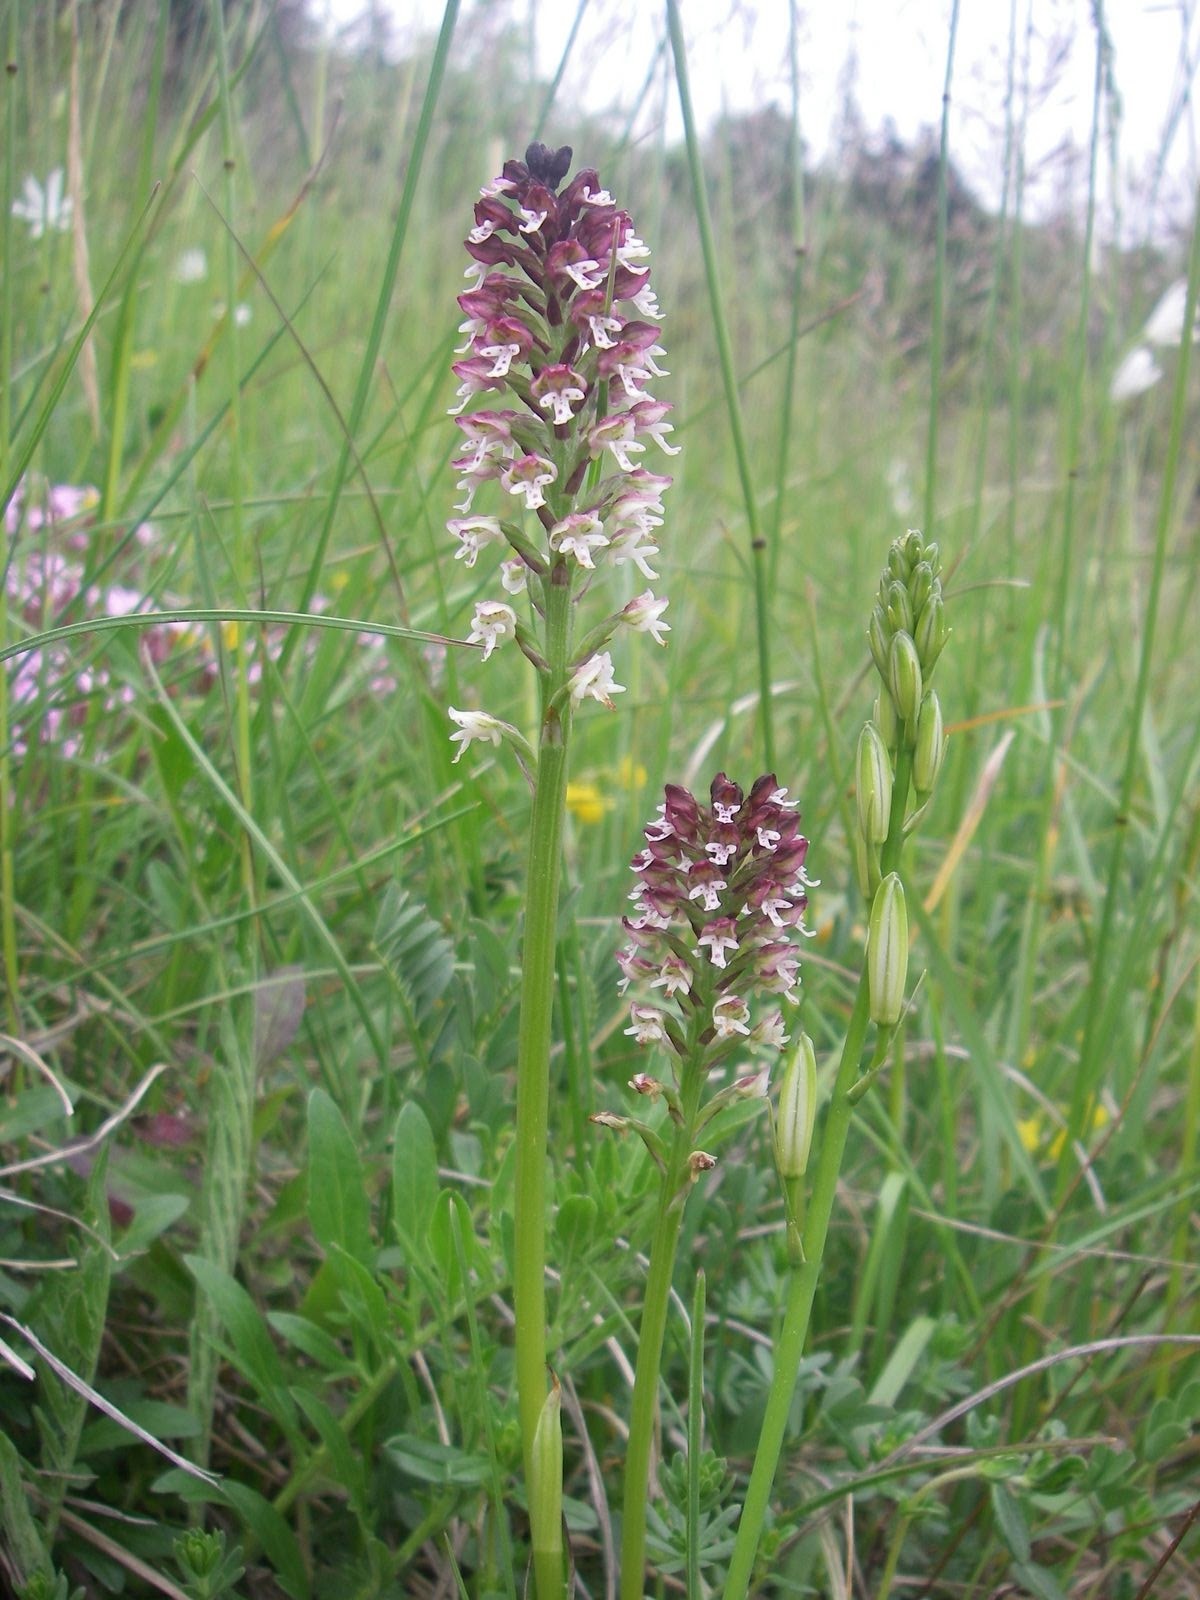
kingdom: Plantae
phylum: Tracheophyta
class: Liliopsida
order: Asparagales
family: Orchidaceae
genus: Neotinea
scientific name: Neotinea ustulata
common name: Burnt orchid
